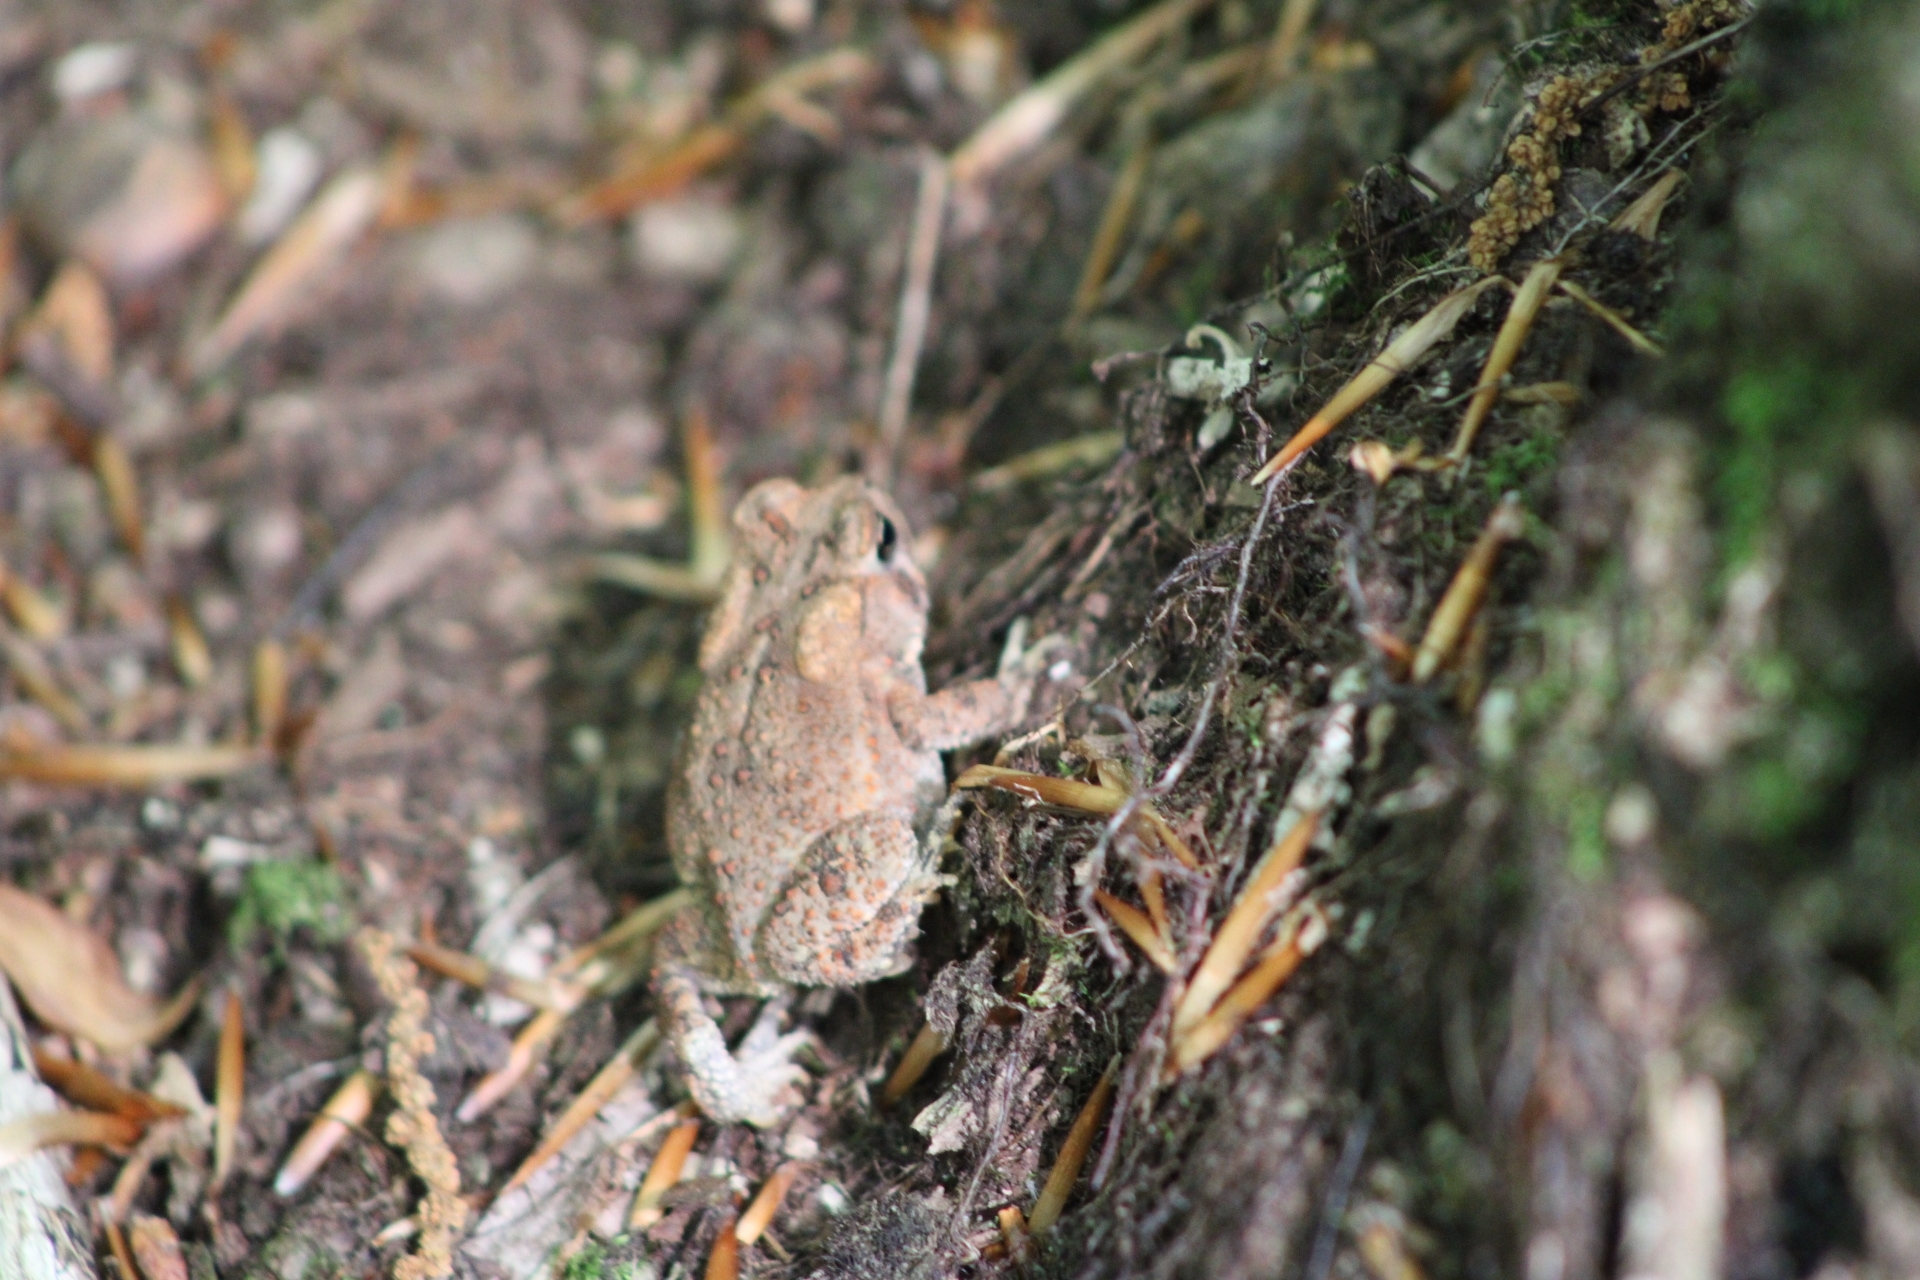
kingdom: Animalia
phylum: Chordata
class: Amphibia
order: Anura
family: Bufonidae
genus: Anaxyrus
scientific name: Anaxyrus americanus
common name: American toad
